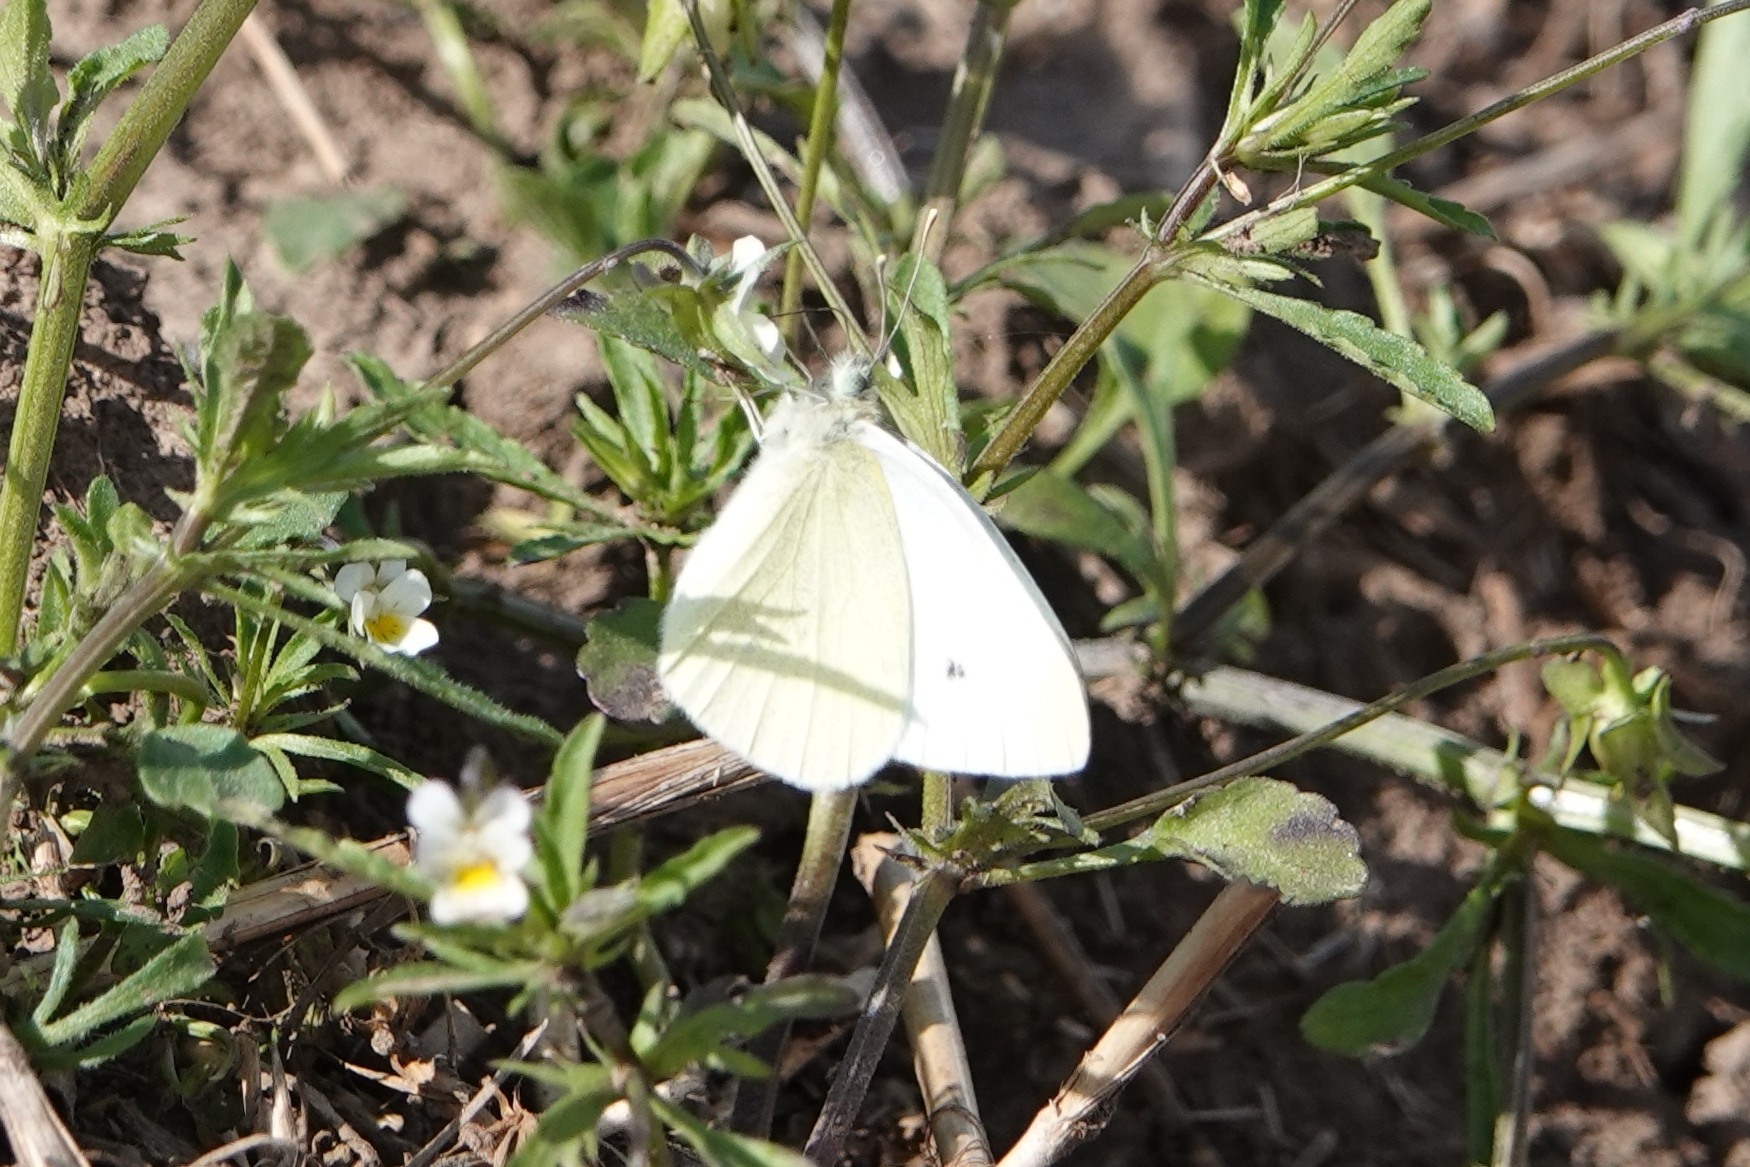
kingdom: Animalia
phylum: Arthropoda
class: Insecta
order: Lepidoptera
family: Pieridae
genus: Pieris
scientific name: Pieris rapae
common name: Small white
